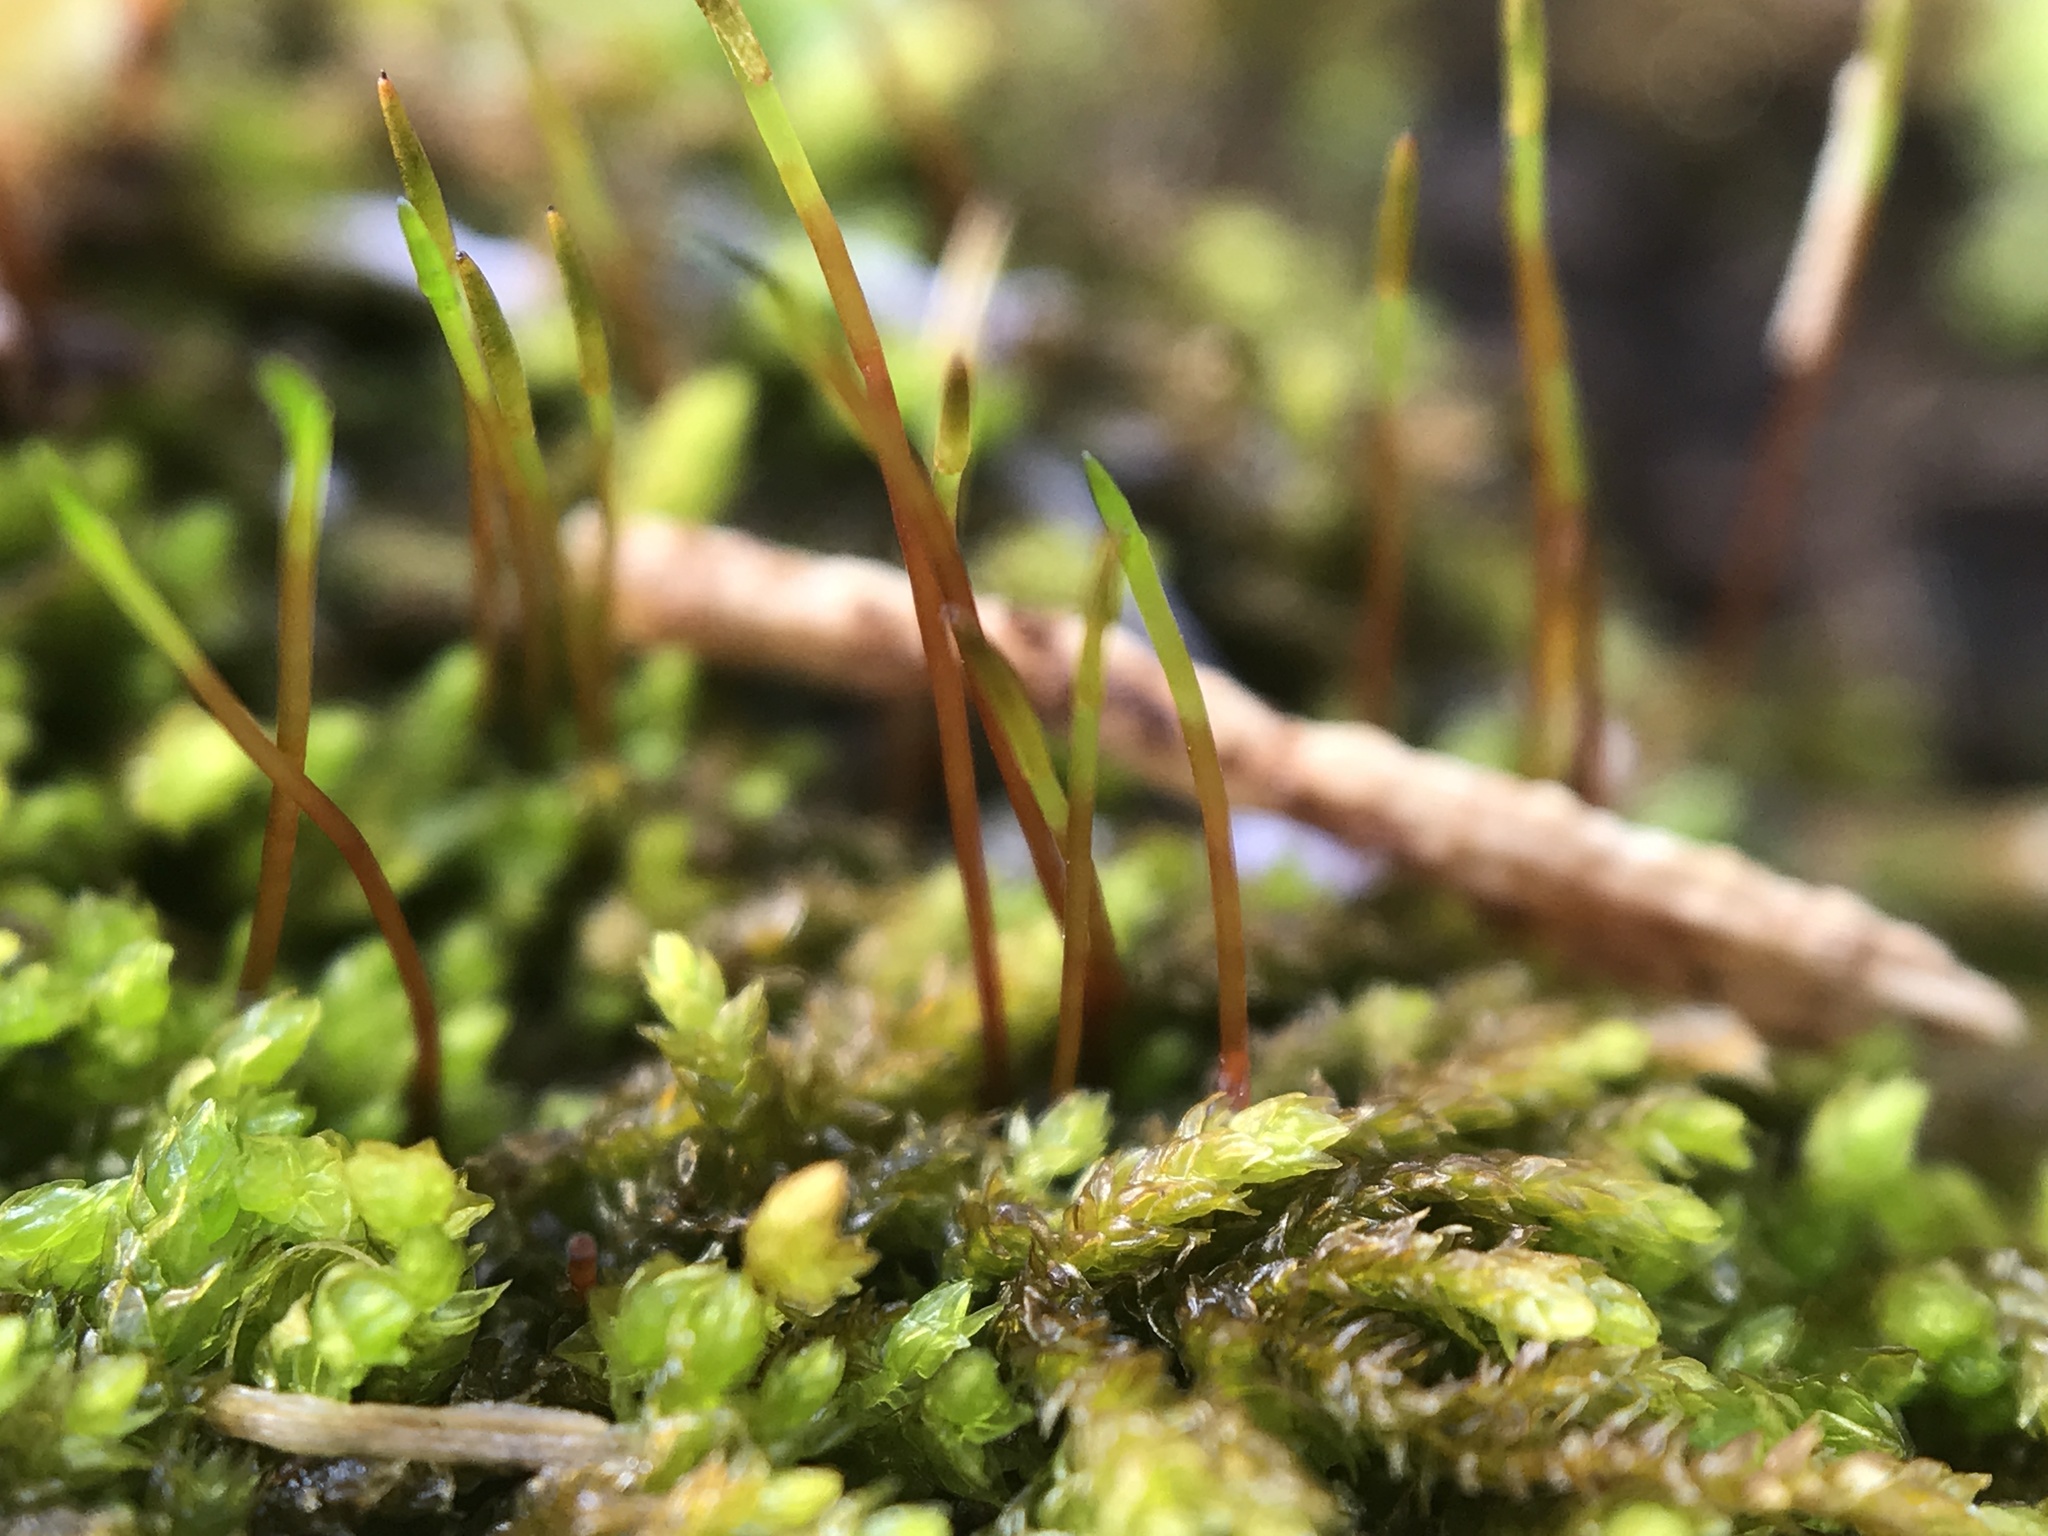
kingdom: Plantae
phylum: Bryophyta
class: Bryopsida
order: Dicranales
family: Ditrichaceae
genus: Ceratodon
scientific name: Ceratodon purpureus
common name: Redshank
